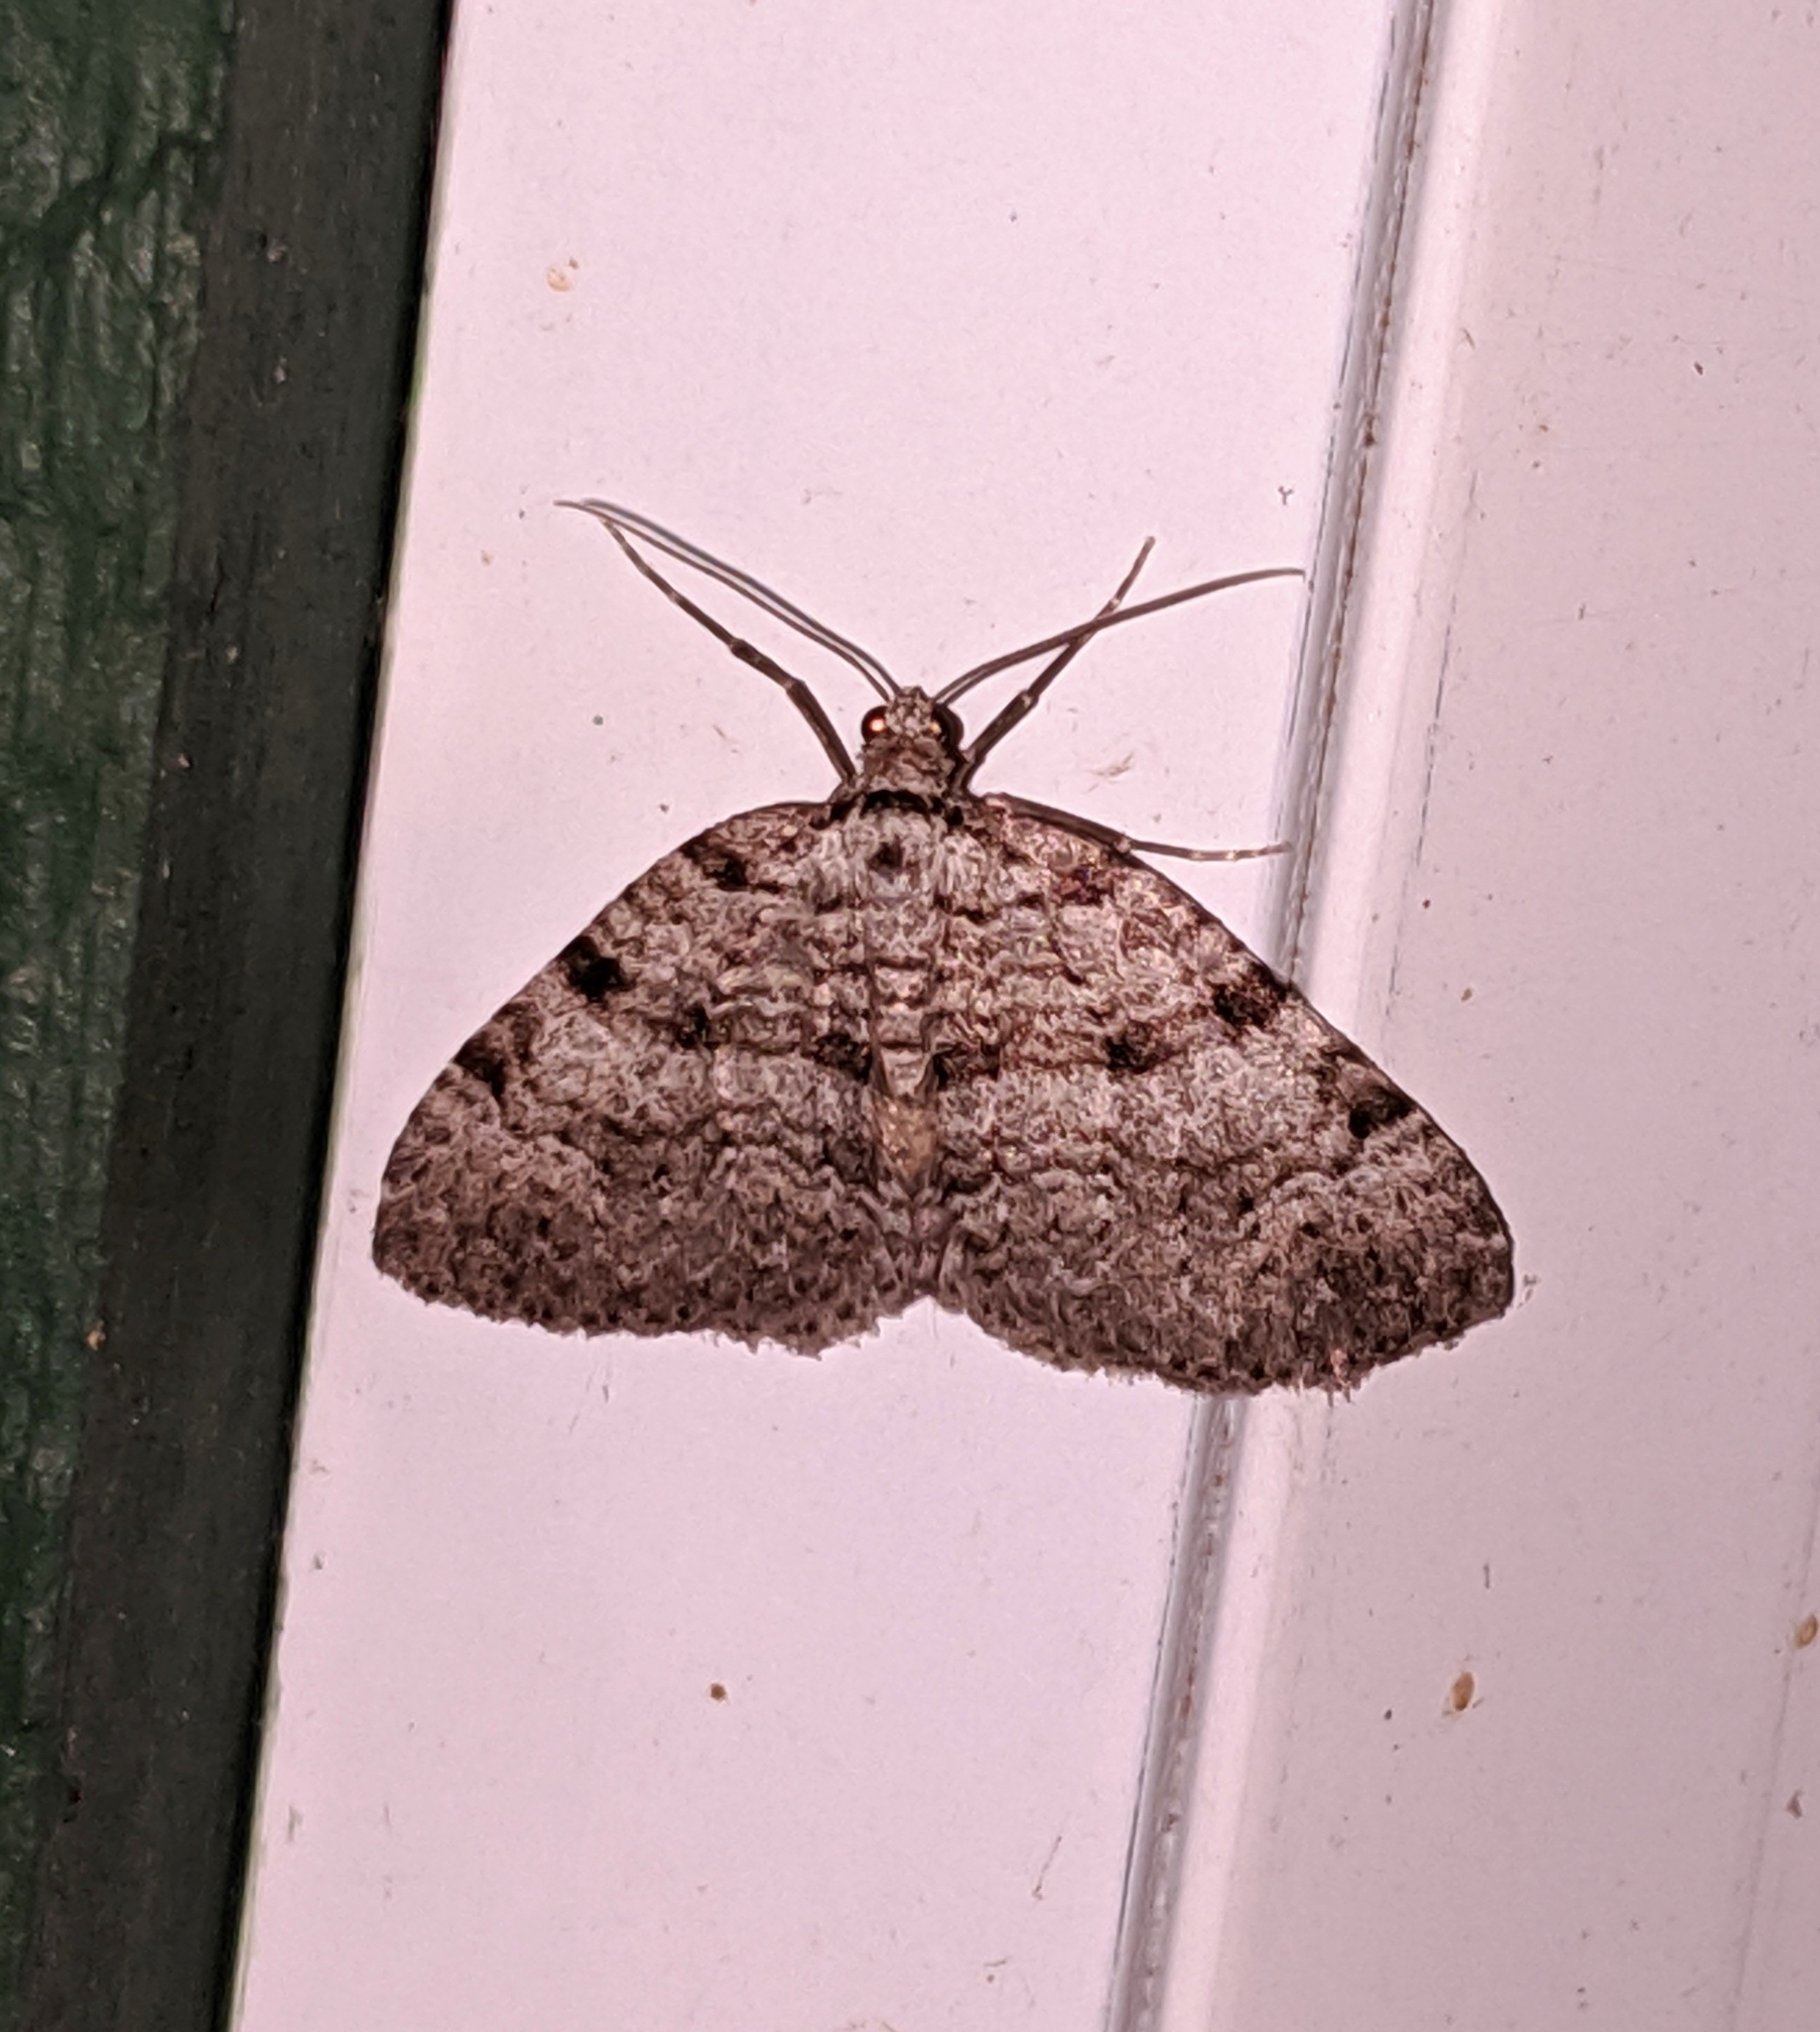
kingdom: Animalia
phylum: Arthropoda
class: Insecta
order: Lepidoptera
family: Geometridae
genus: Perizoma
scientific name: Perizoma curvilinea
